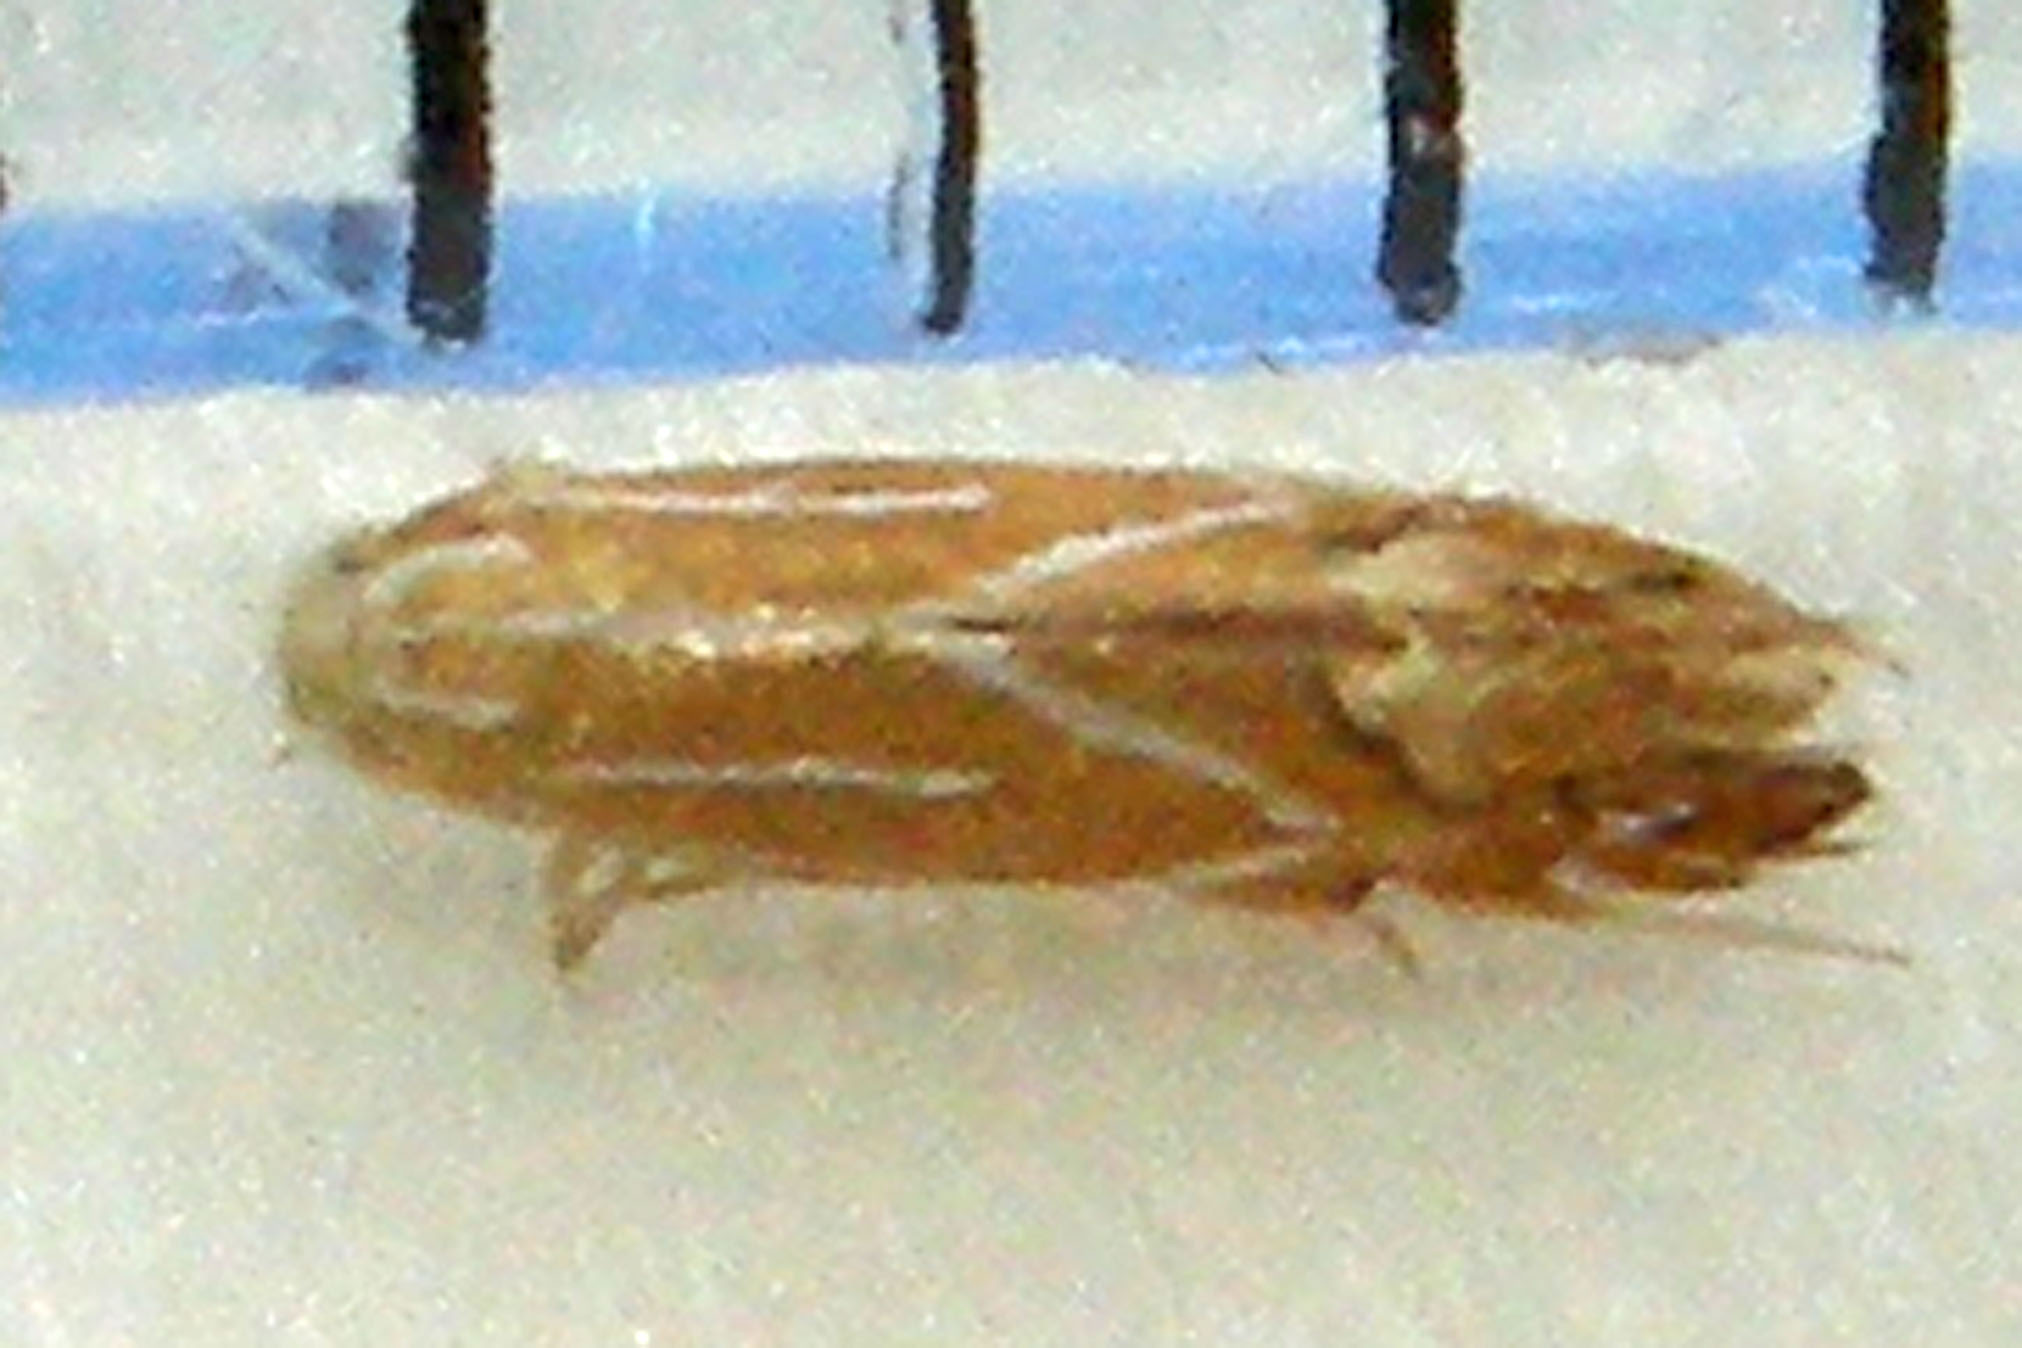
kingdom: Animalia
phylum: Arthropoda
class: Insecta
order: Lepidoptera
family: Gracillariidae
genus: Phyllonorycter
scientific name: Phyllonorycter basistrigella
